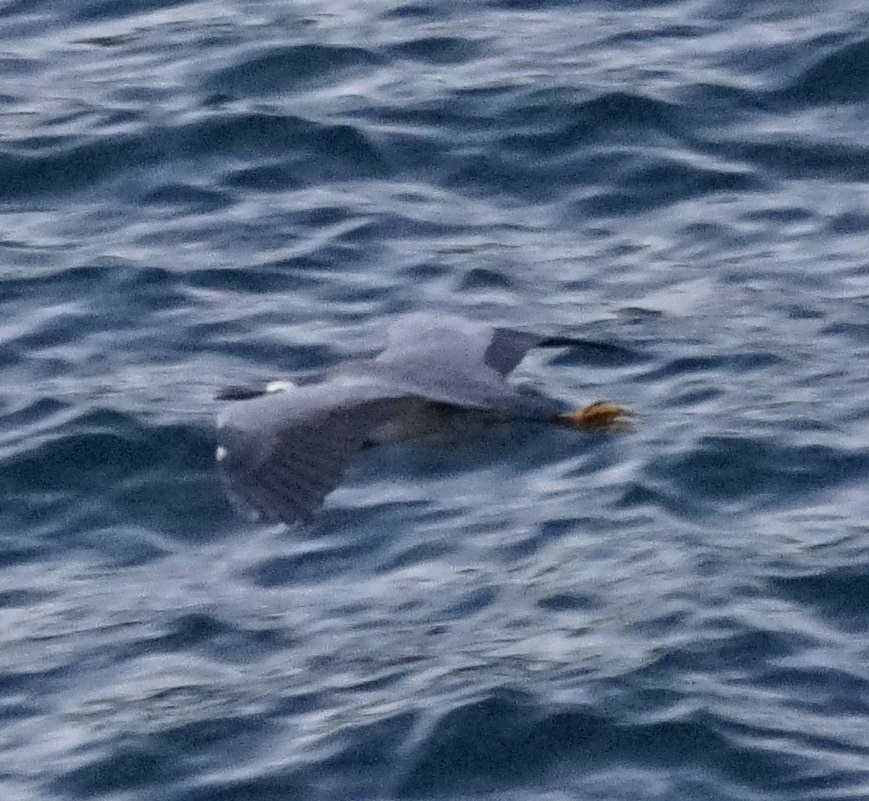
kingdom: Animalia
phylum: Chordata
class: Aves
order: Pelecaniformes
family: Ardeidae
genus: Egretta
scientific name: Egretta novaehollandiae
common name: White-faced heron
